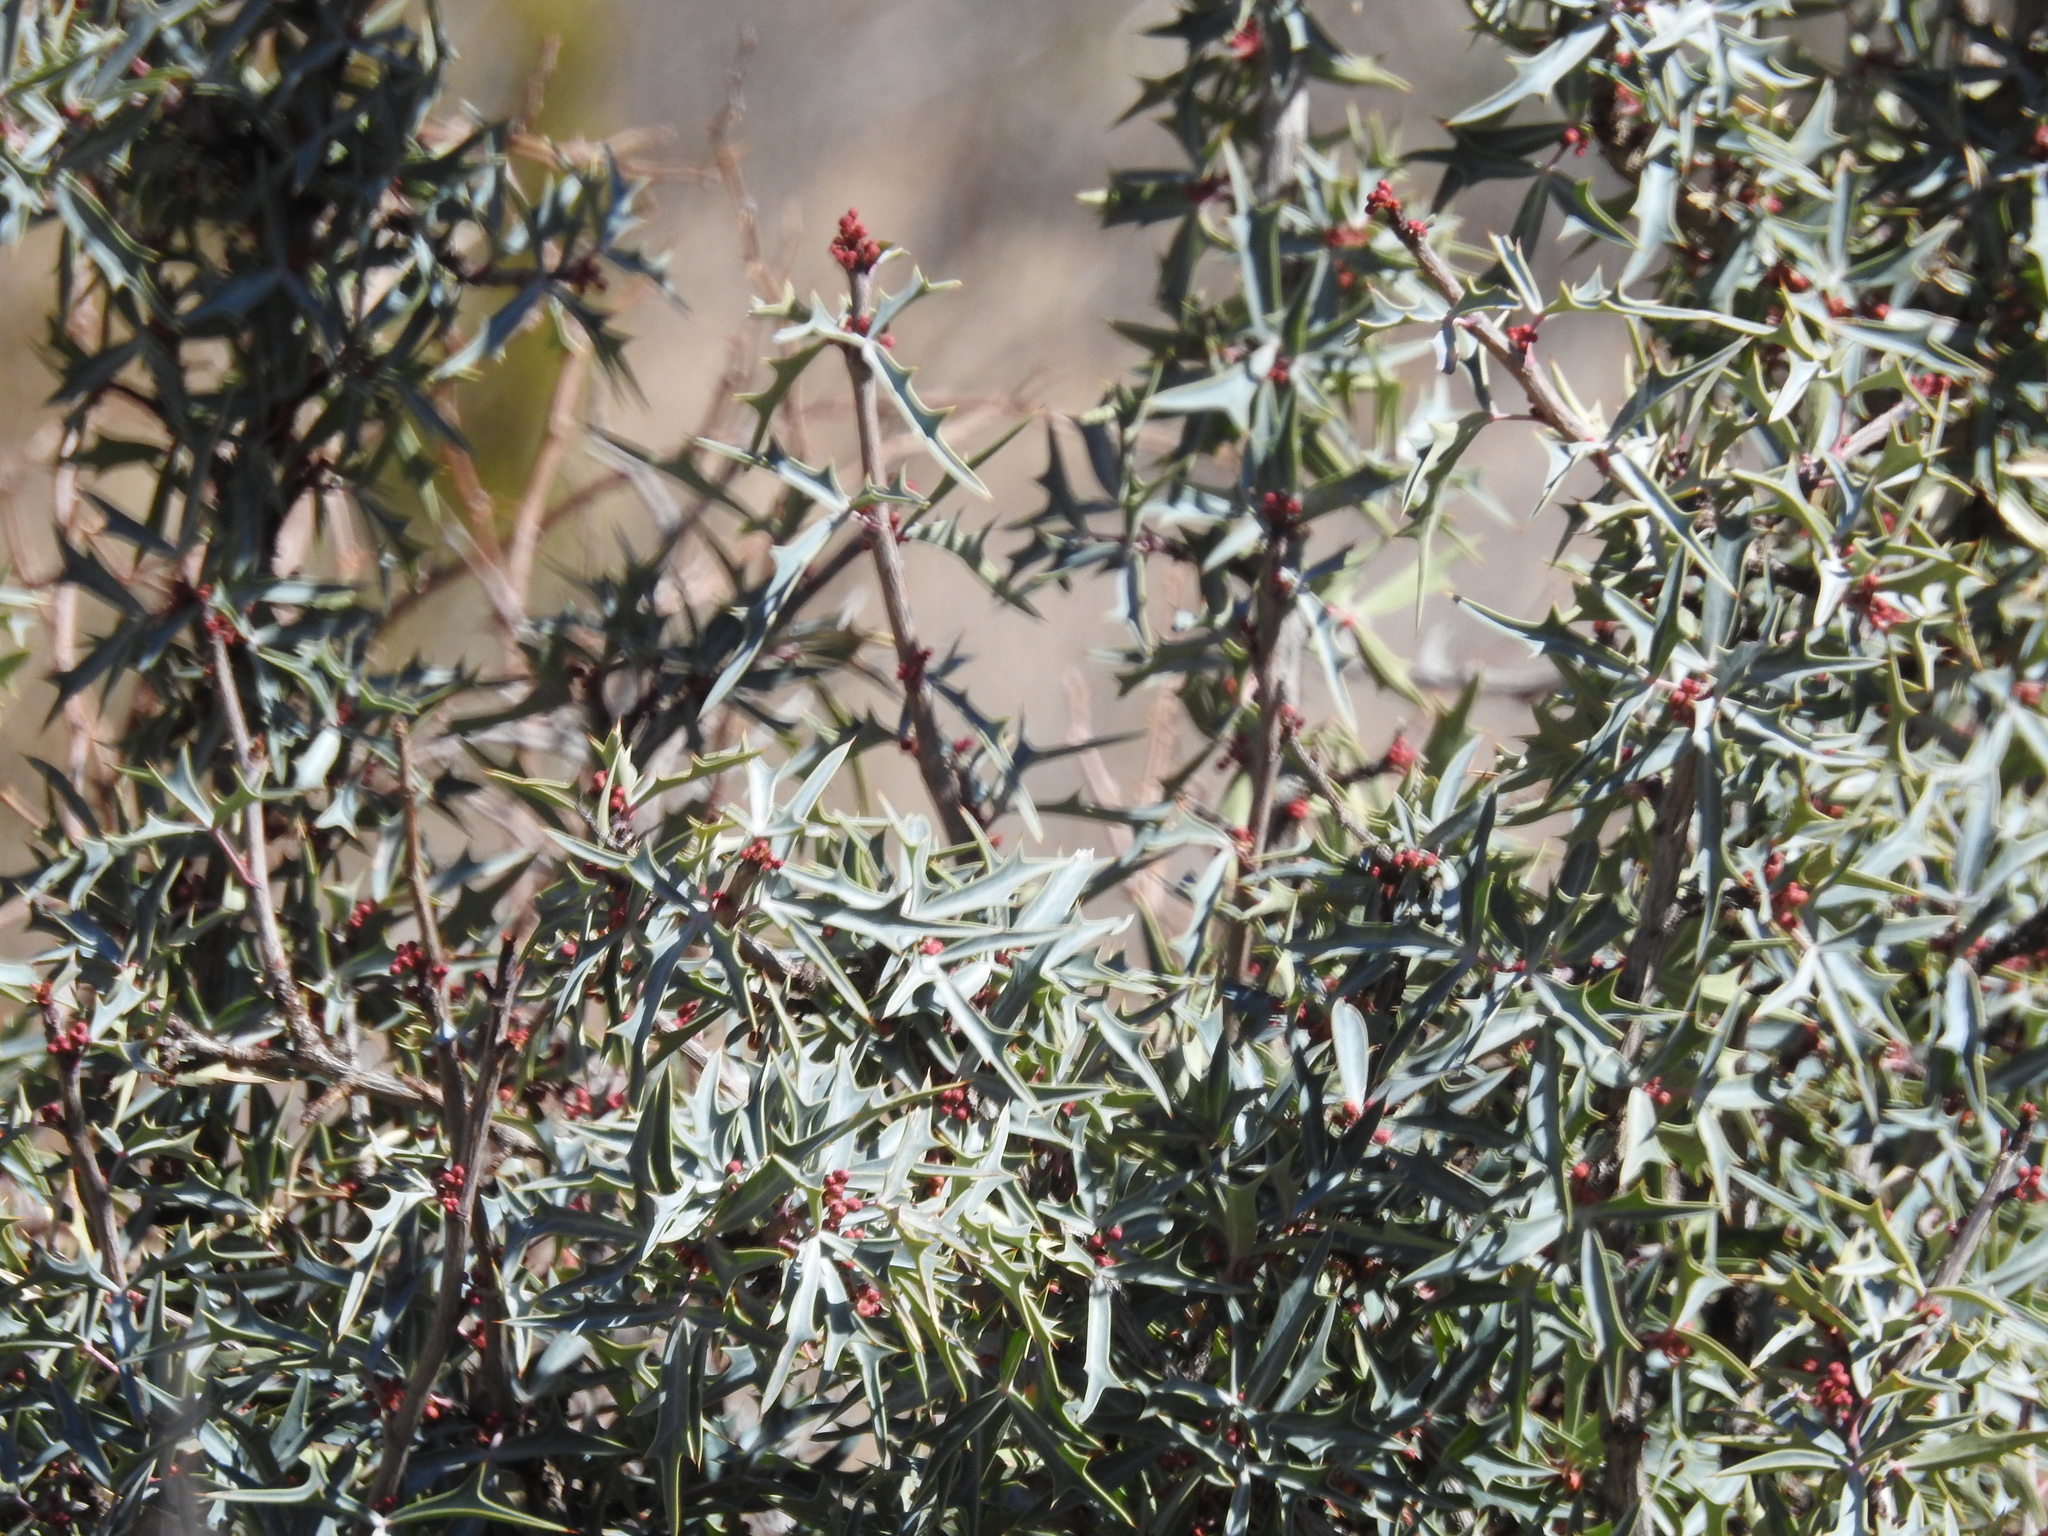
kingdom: Plantae
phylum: Tracheophyta
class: Magnoliopsida
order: Ranunculales
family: Berberidaceae
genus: Alloberberis
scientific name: Alloberberis trifoliolata
